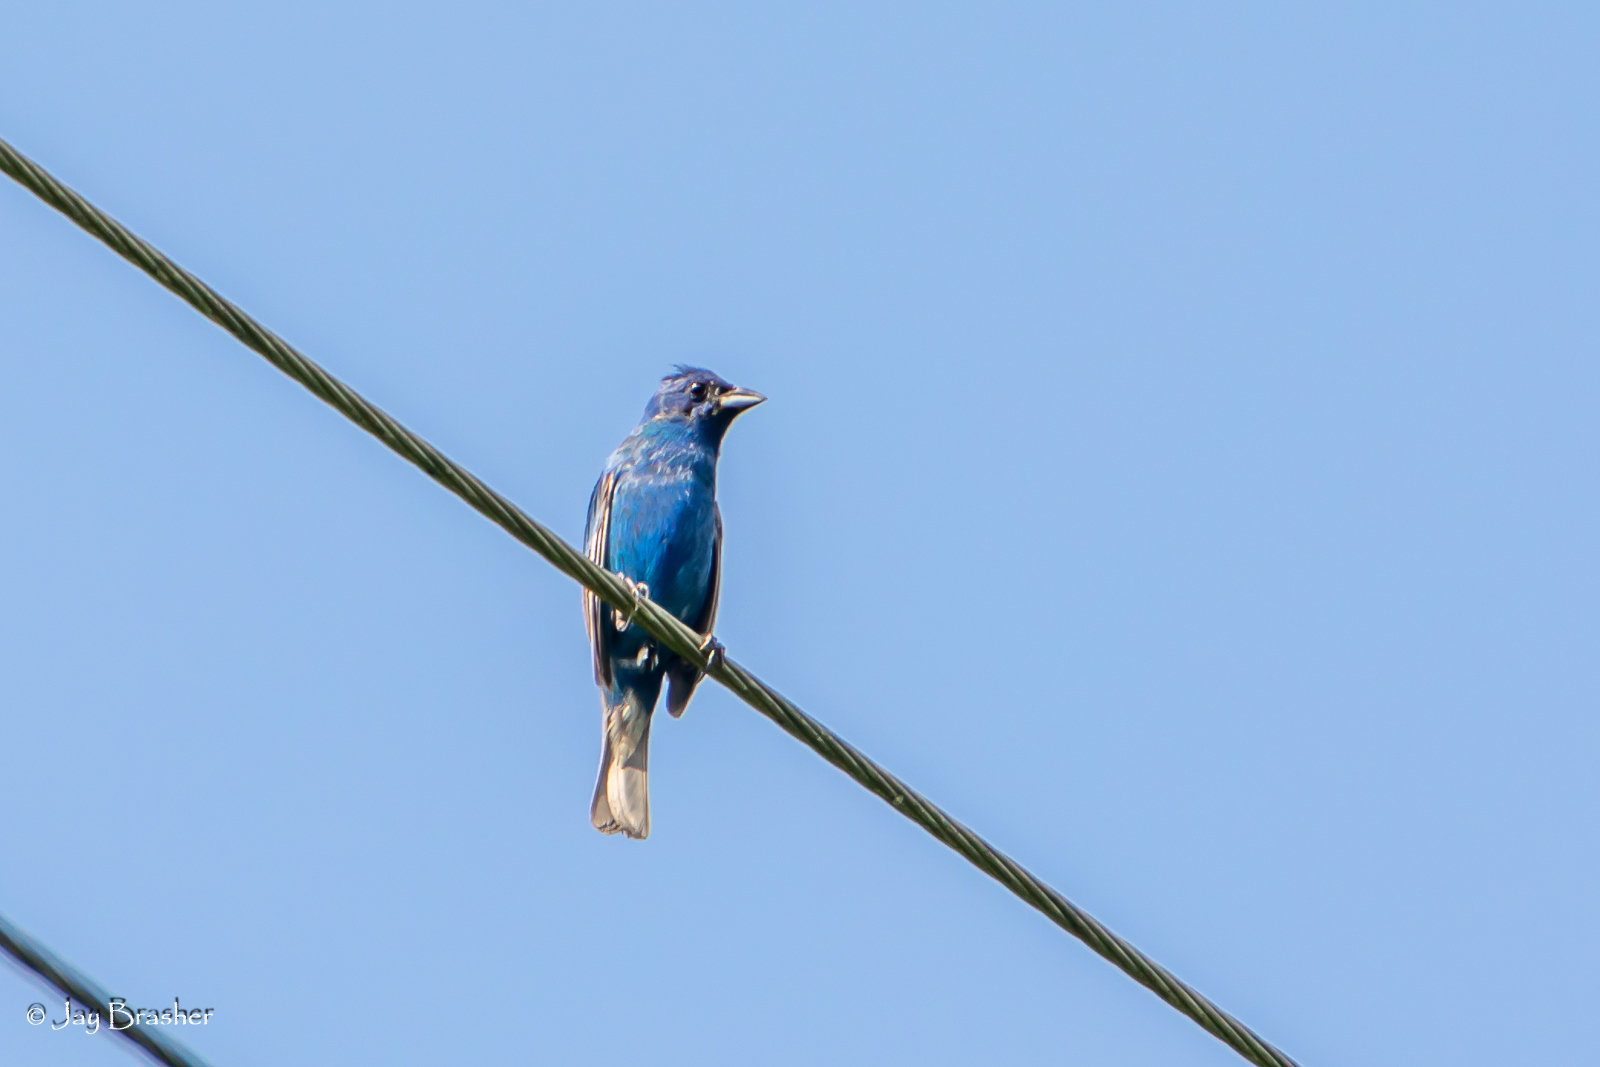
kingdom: Animalia
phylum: Chordata
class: Aves
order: Passeriformes
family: Cardinalidae
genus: Passerina
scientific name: Passerina cyanea
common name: Indigo bunting
